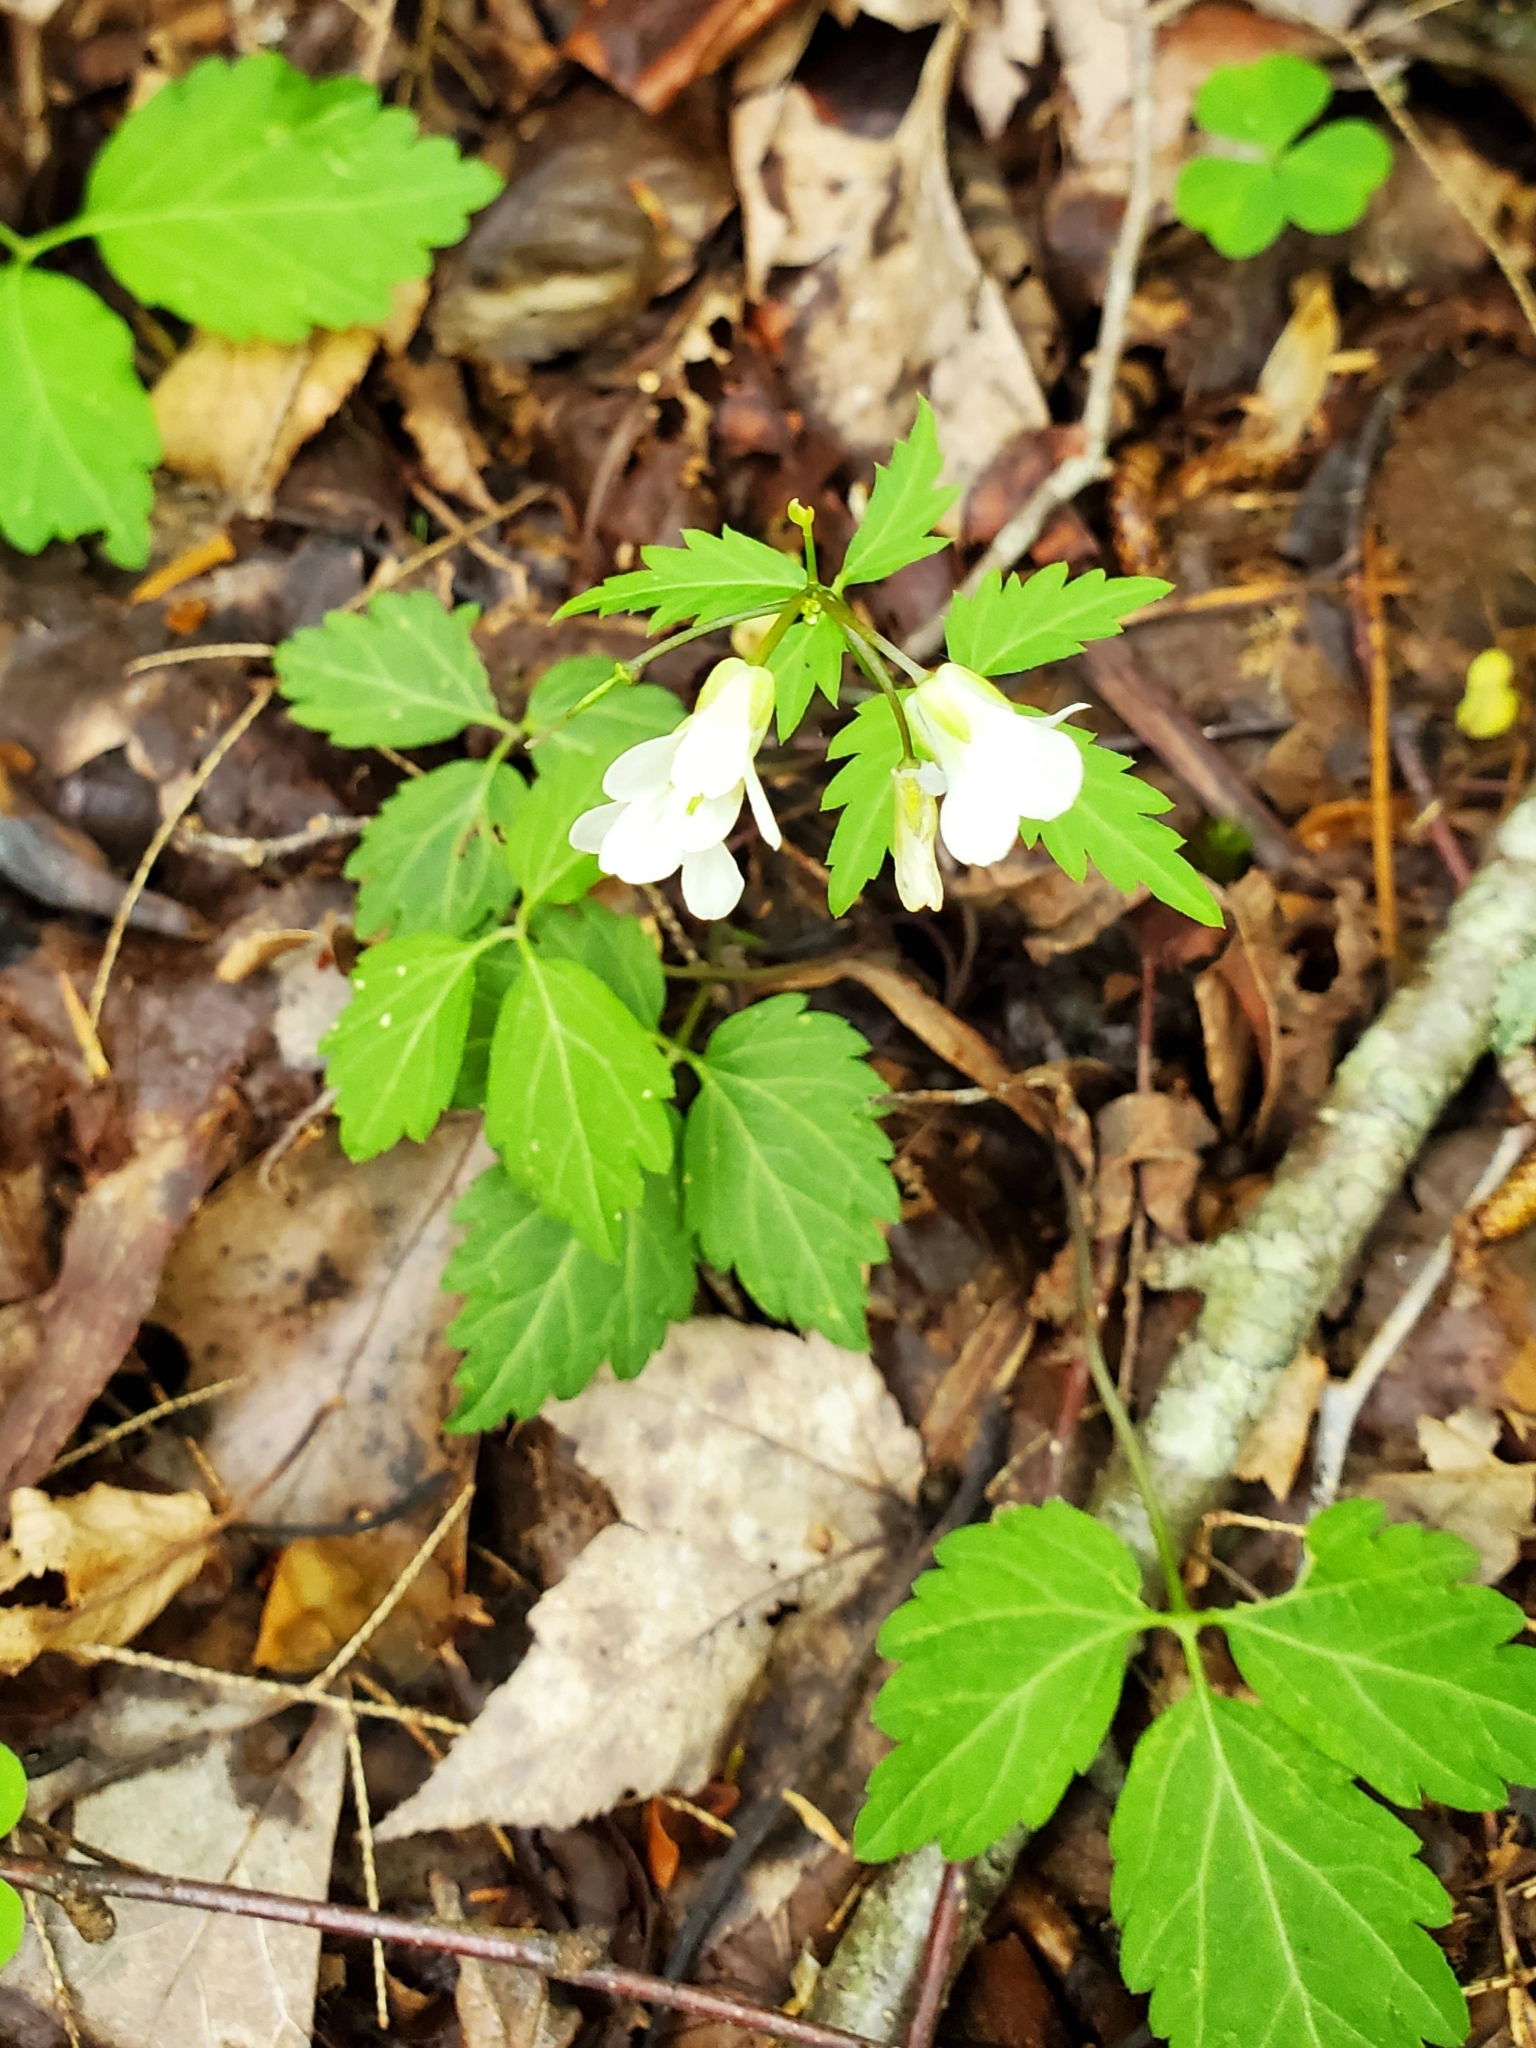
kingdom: Plantae
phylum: Tracheophyta
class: Magnoliopsida
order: Brassicales
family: Brassicaceae
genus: Cardamine
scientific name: Cardamine diphylla
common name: Broad-leaved toothwort
